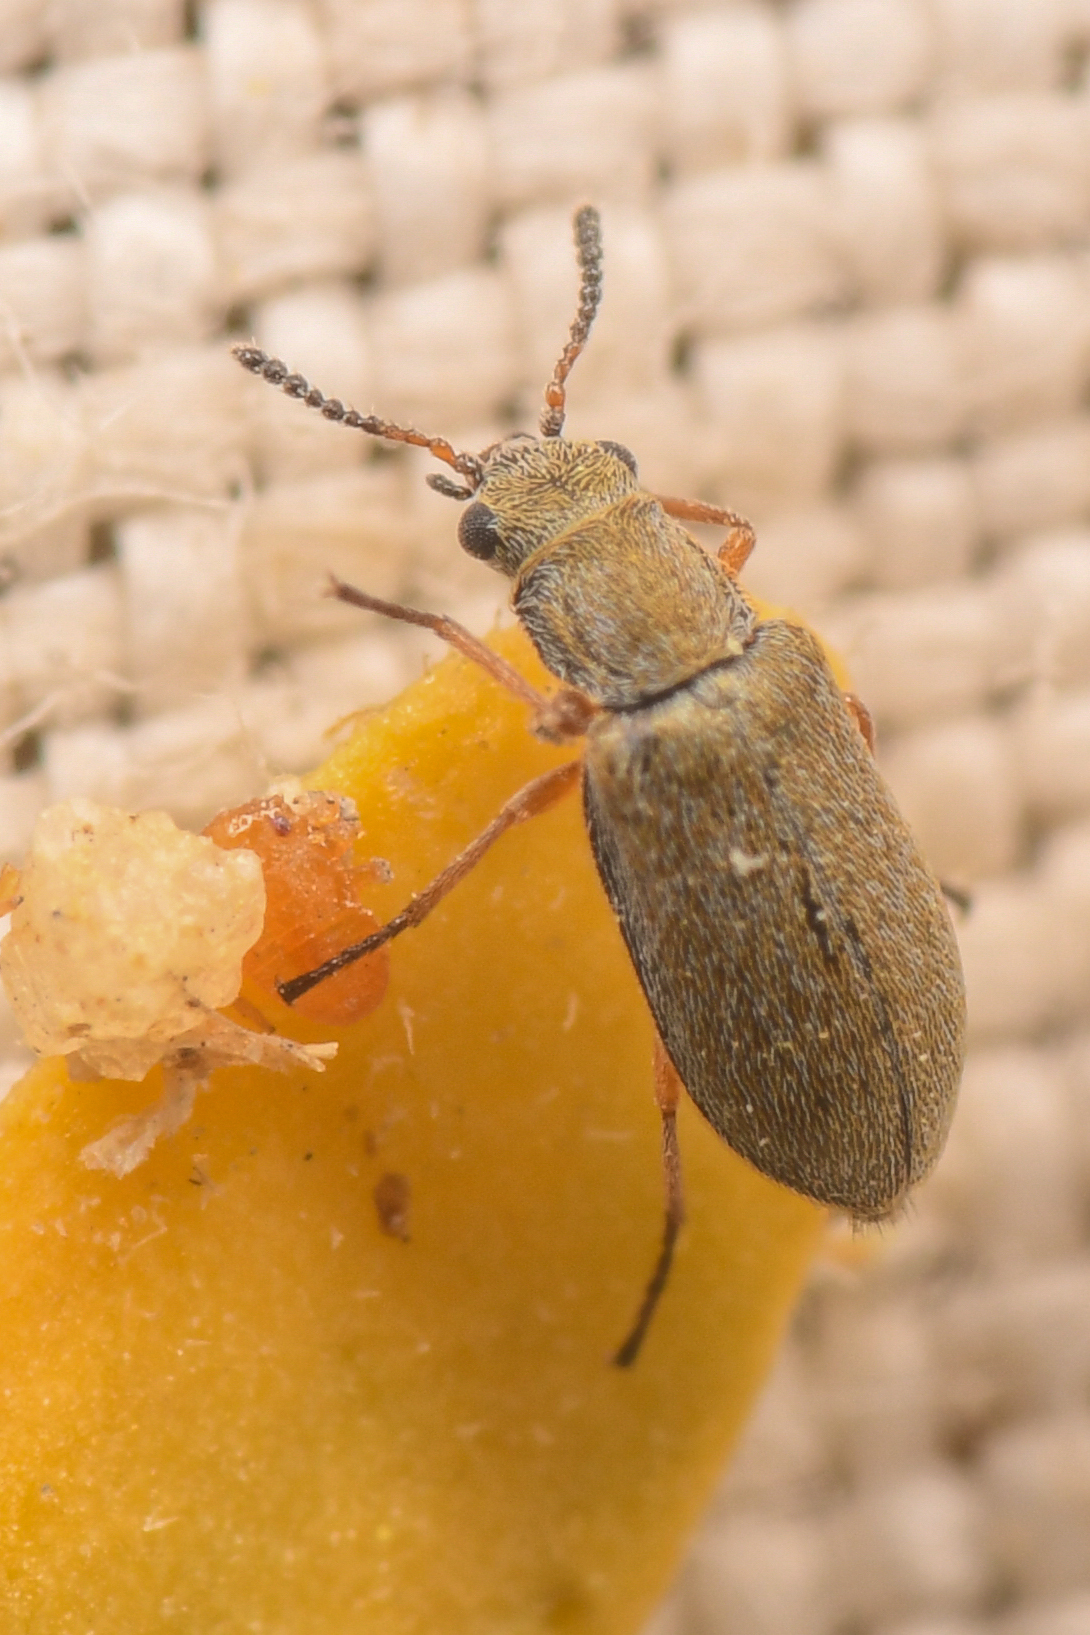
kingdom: Animalia
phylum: Arthropoda
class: Insecta
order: Coleoptera
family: Melyridae
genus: Vecturoides
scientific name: Vecturoides
